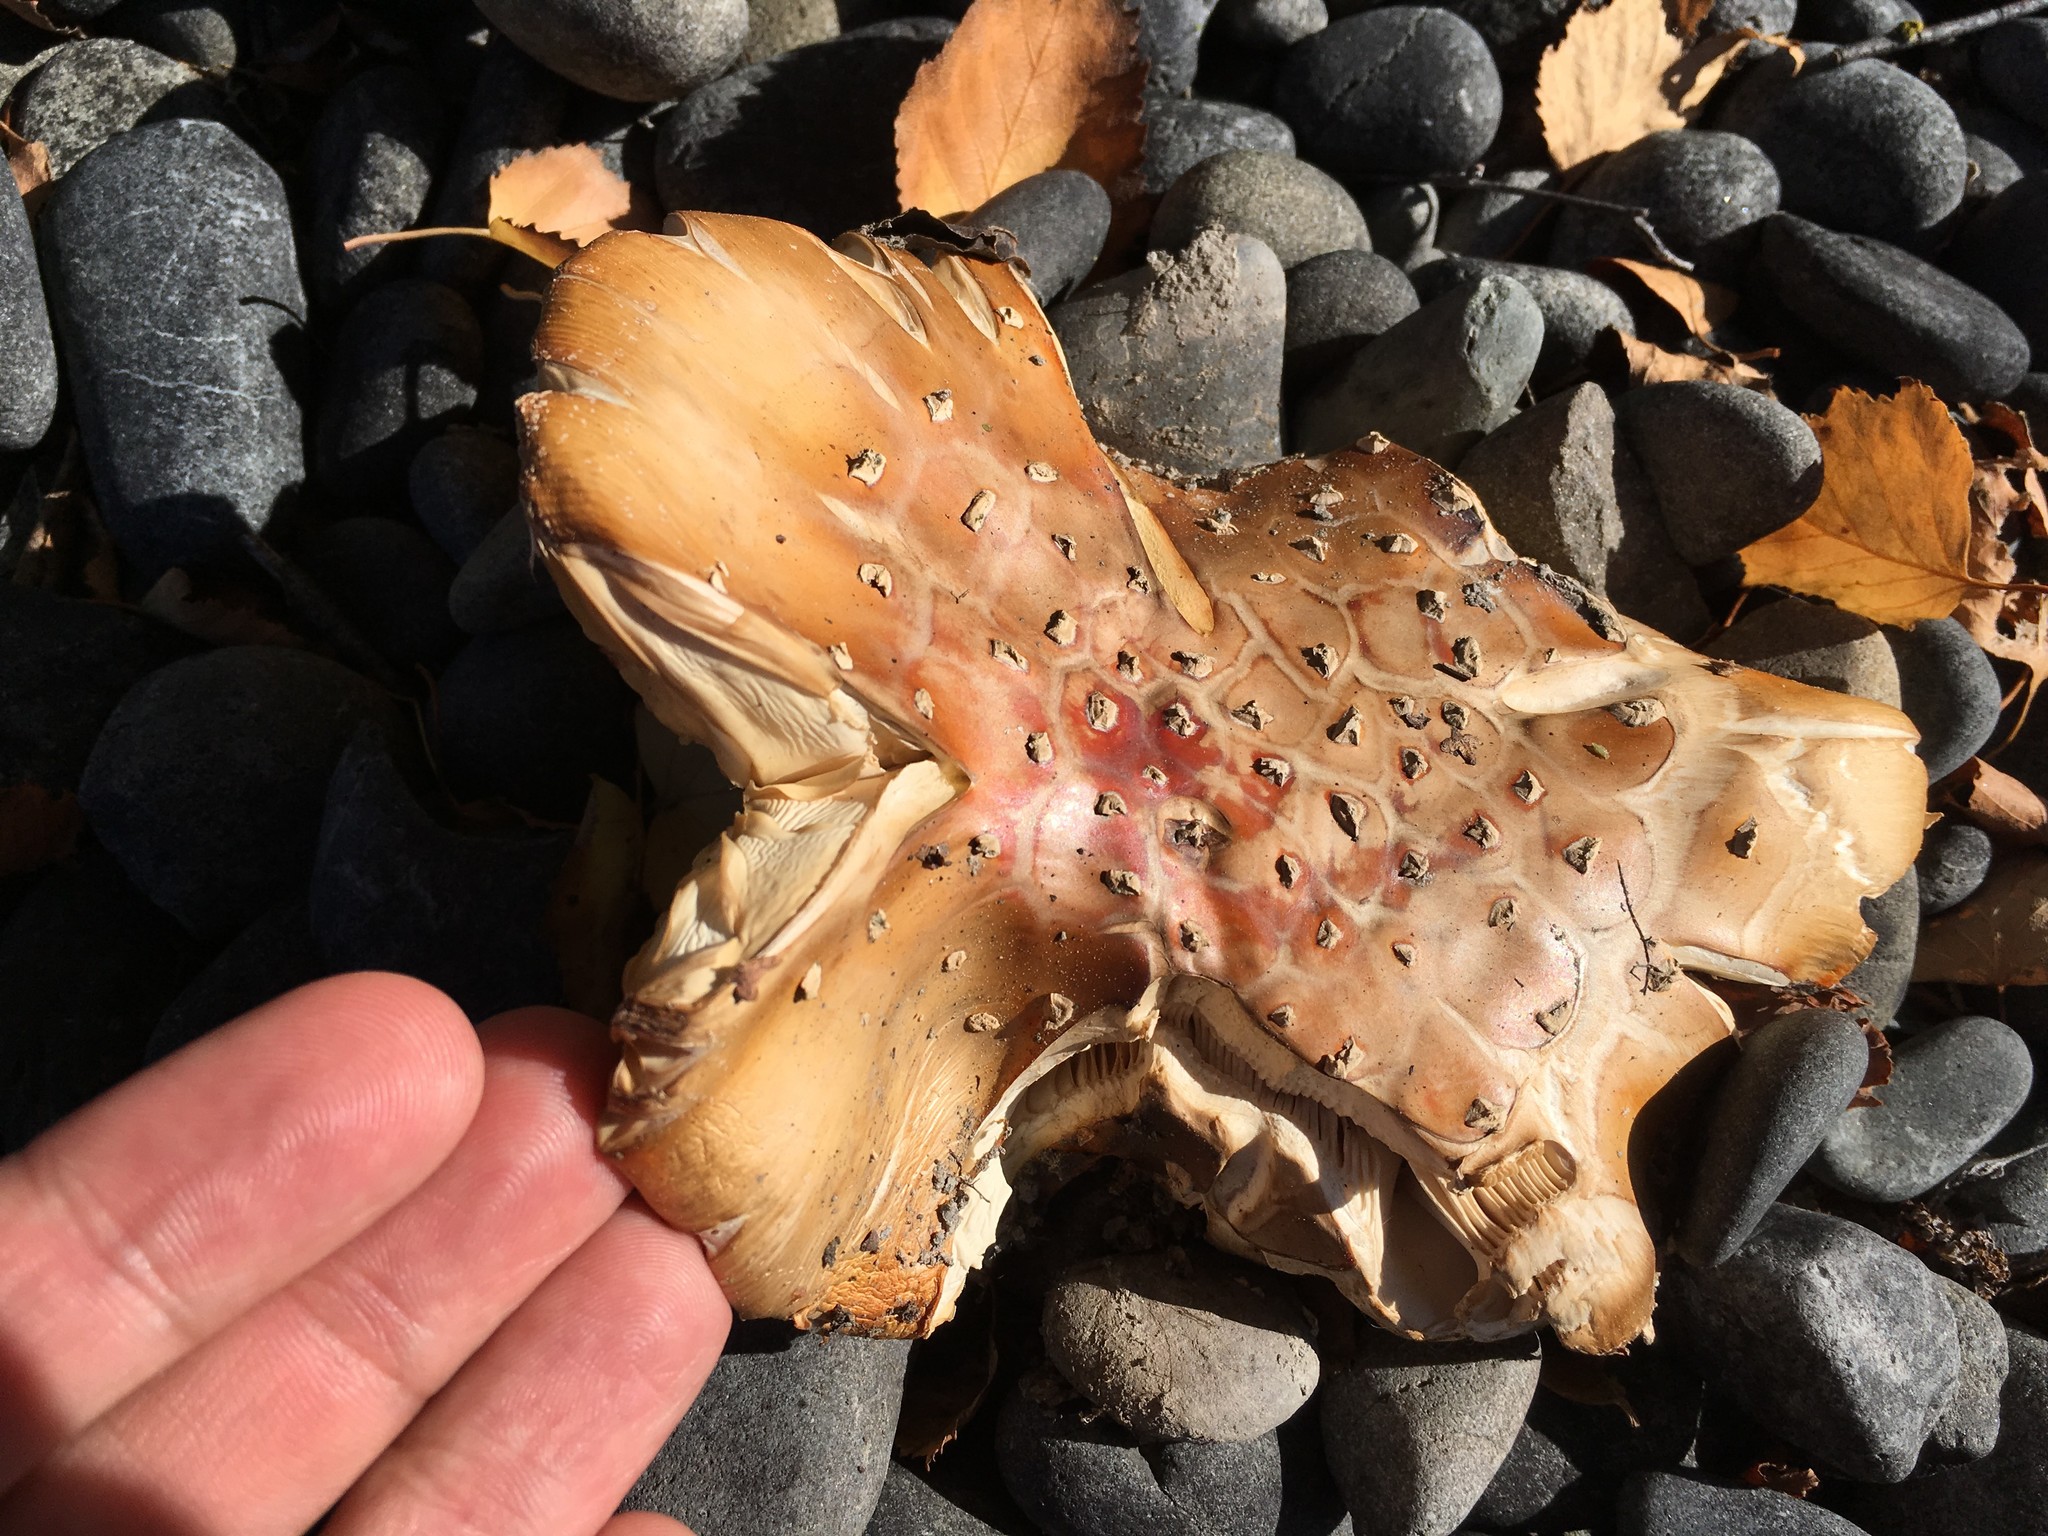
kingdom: Fungi
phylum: Basidiomycota
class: Agaricomycetes
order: Agaricales
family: Amanitaceae
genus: Amanita
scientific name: Amanita muscaria
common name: Fly agaric
